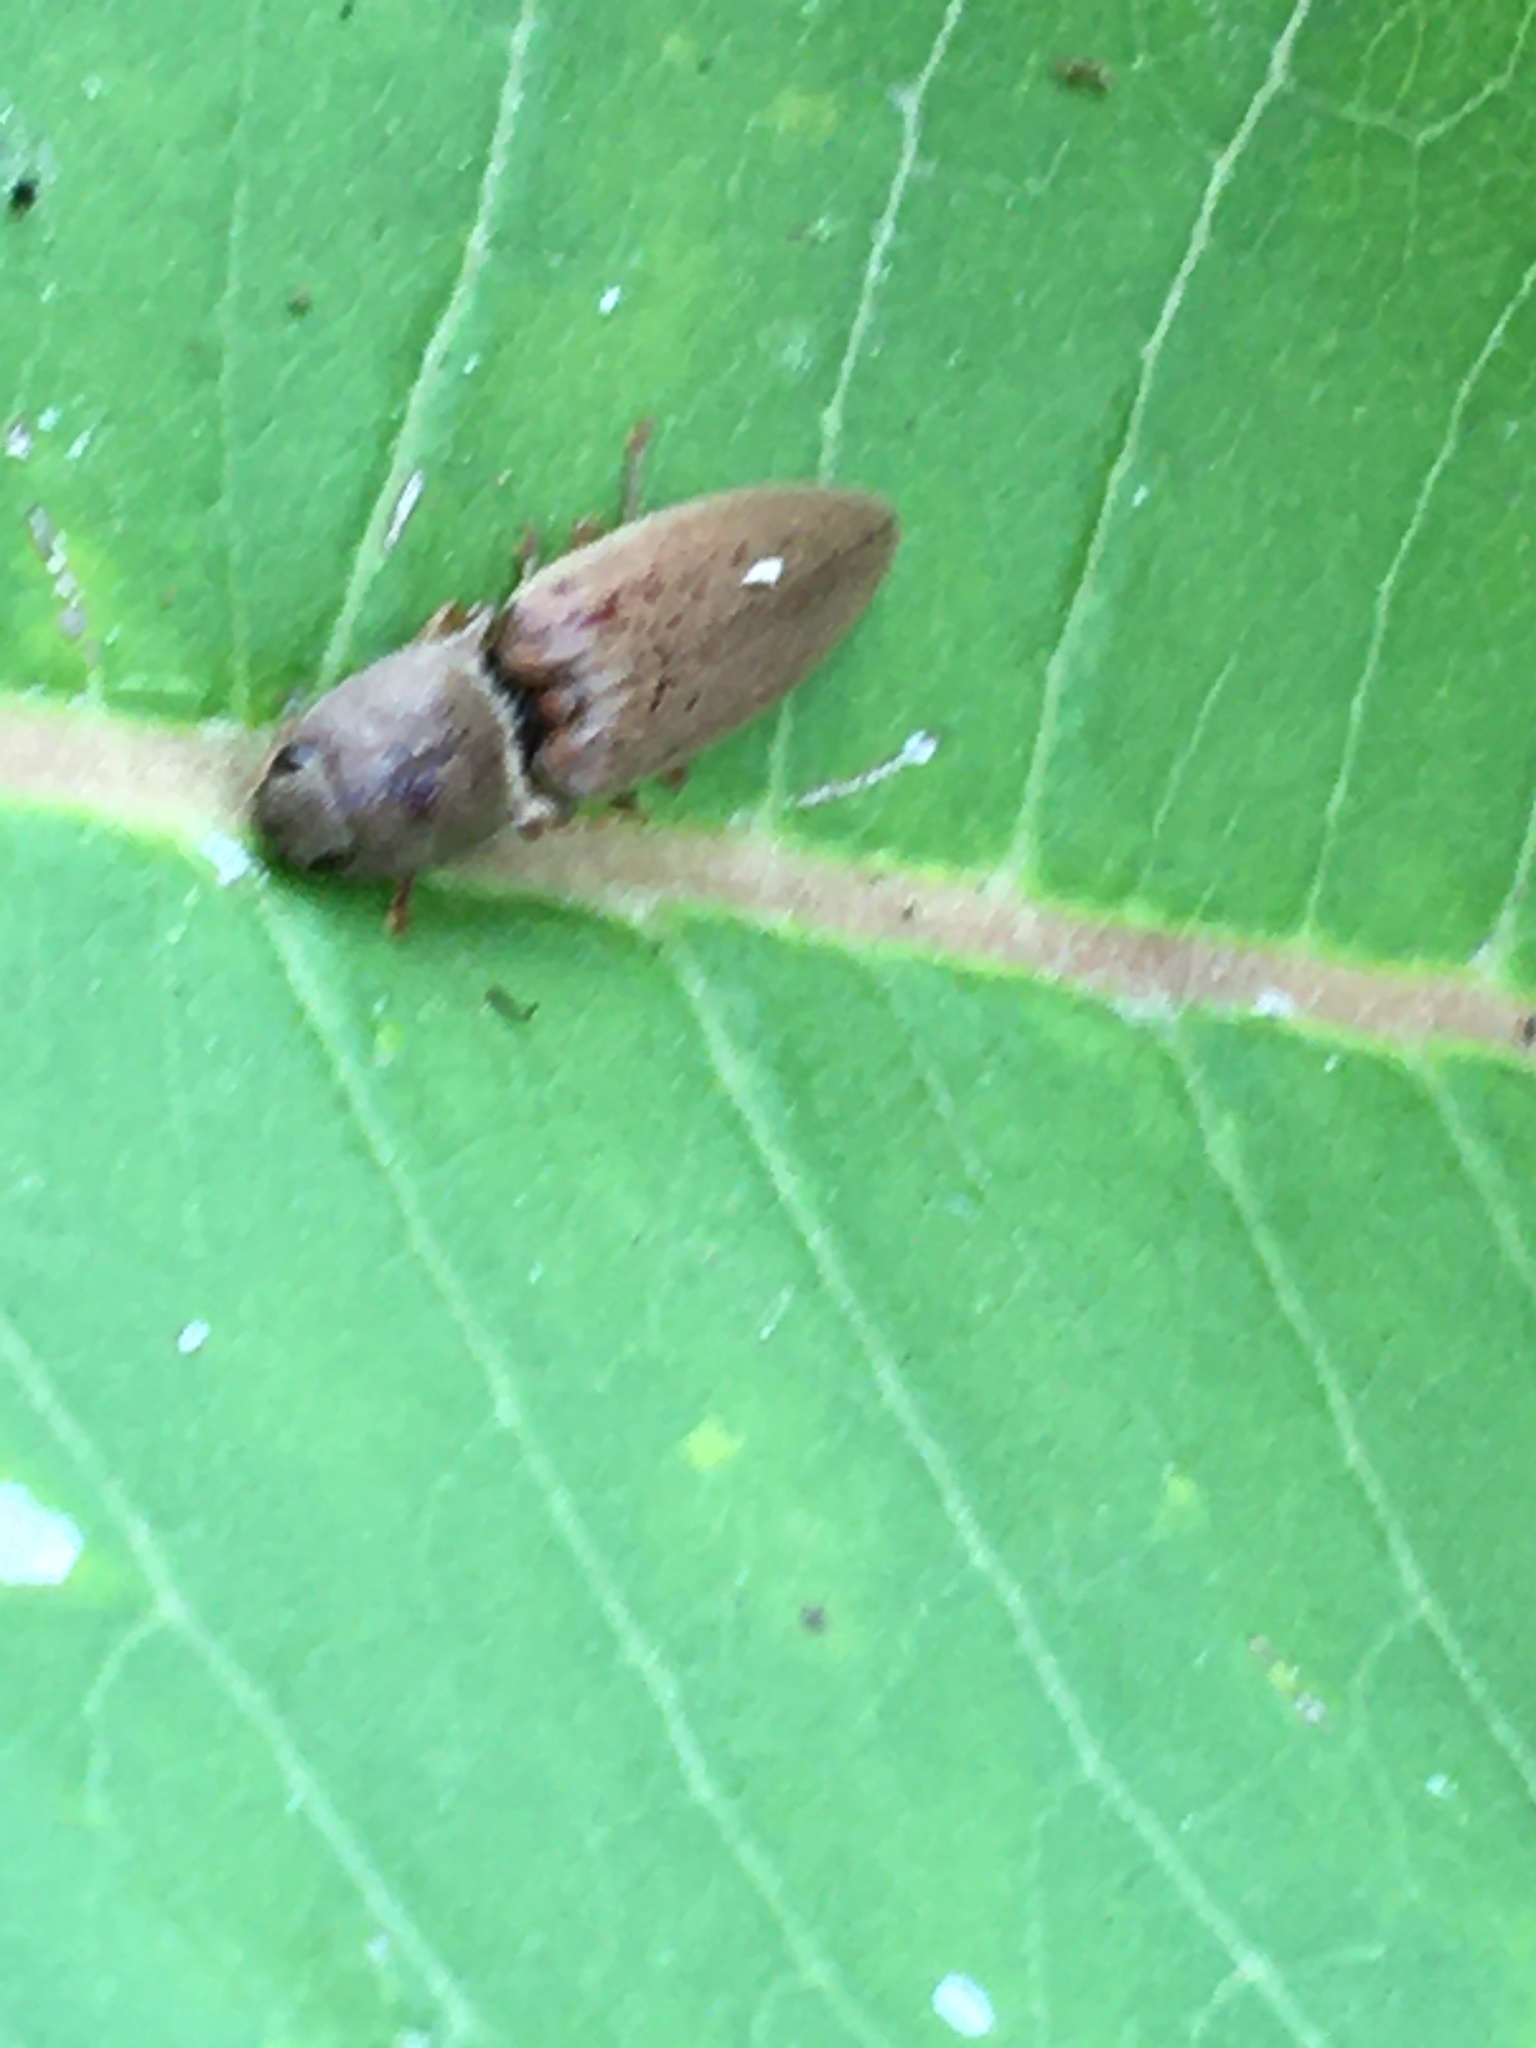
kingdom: Animalia
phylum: Arthropoda
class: Insecta
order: Coleoptera
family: Elateridae
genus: Monocrepidius
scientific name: Monocrepidius lividus
